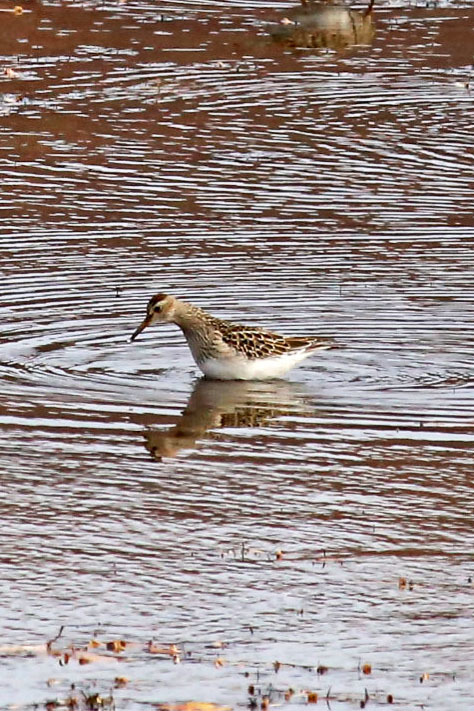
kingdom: Animalia
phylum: Chordata
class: Aves
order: Charadriiformes
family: Scolopacidae
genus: Calidris
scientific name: Calidris melanotos
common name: Pectoral sandpiper
